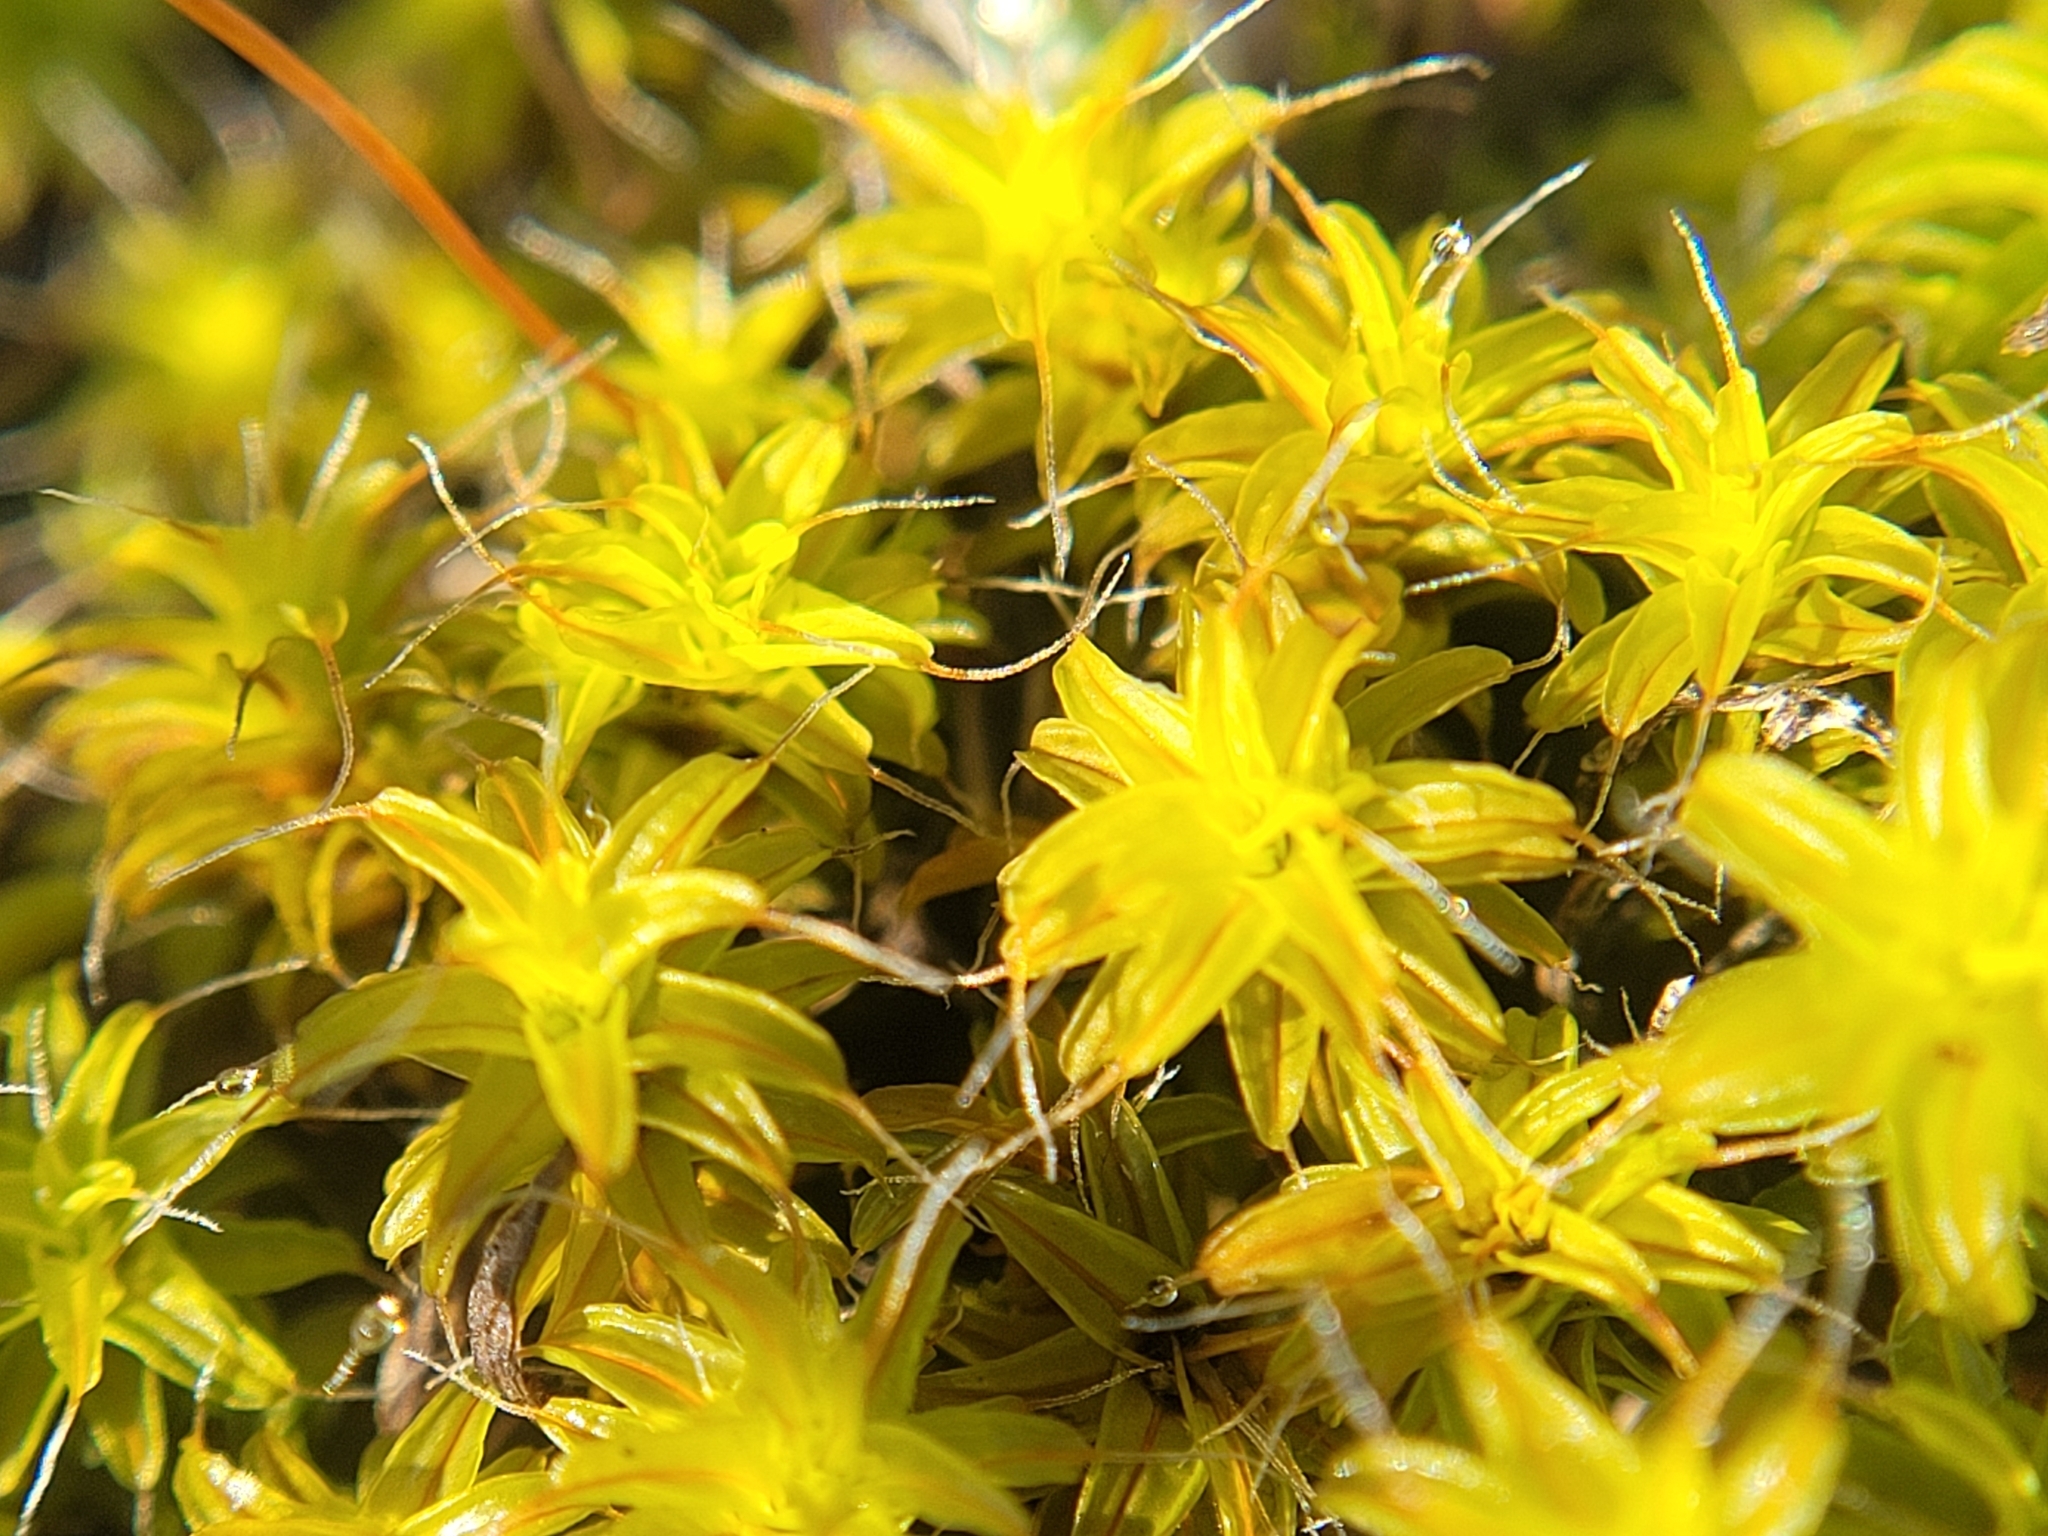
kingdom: Plantae
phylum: Bryophyta
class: Bryopsida
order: Pottiales
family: Pottiaceae
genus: Syntrichia
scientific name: Syntrichia ruralis
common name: Sidewalk screw moss
